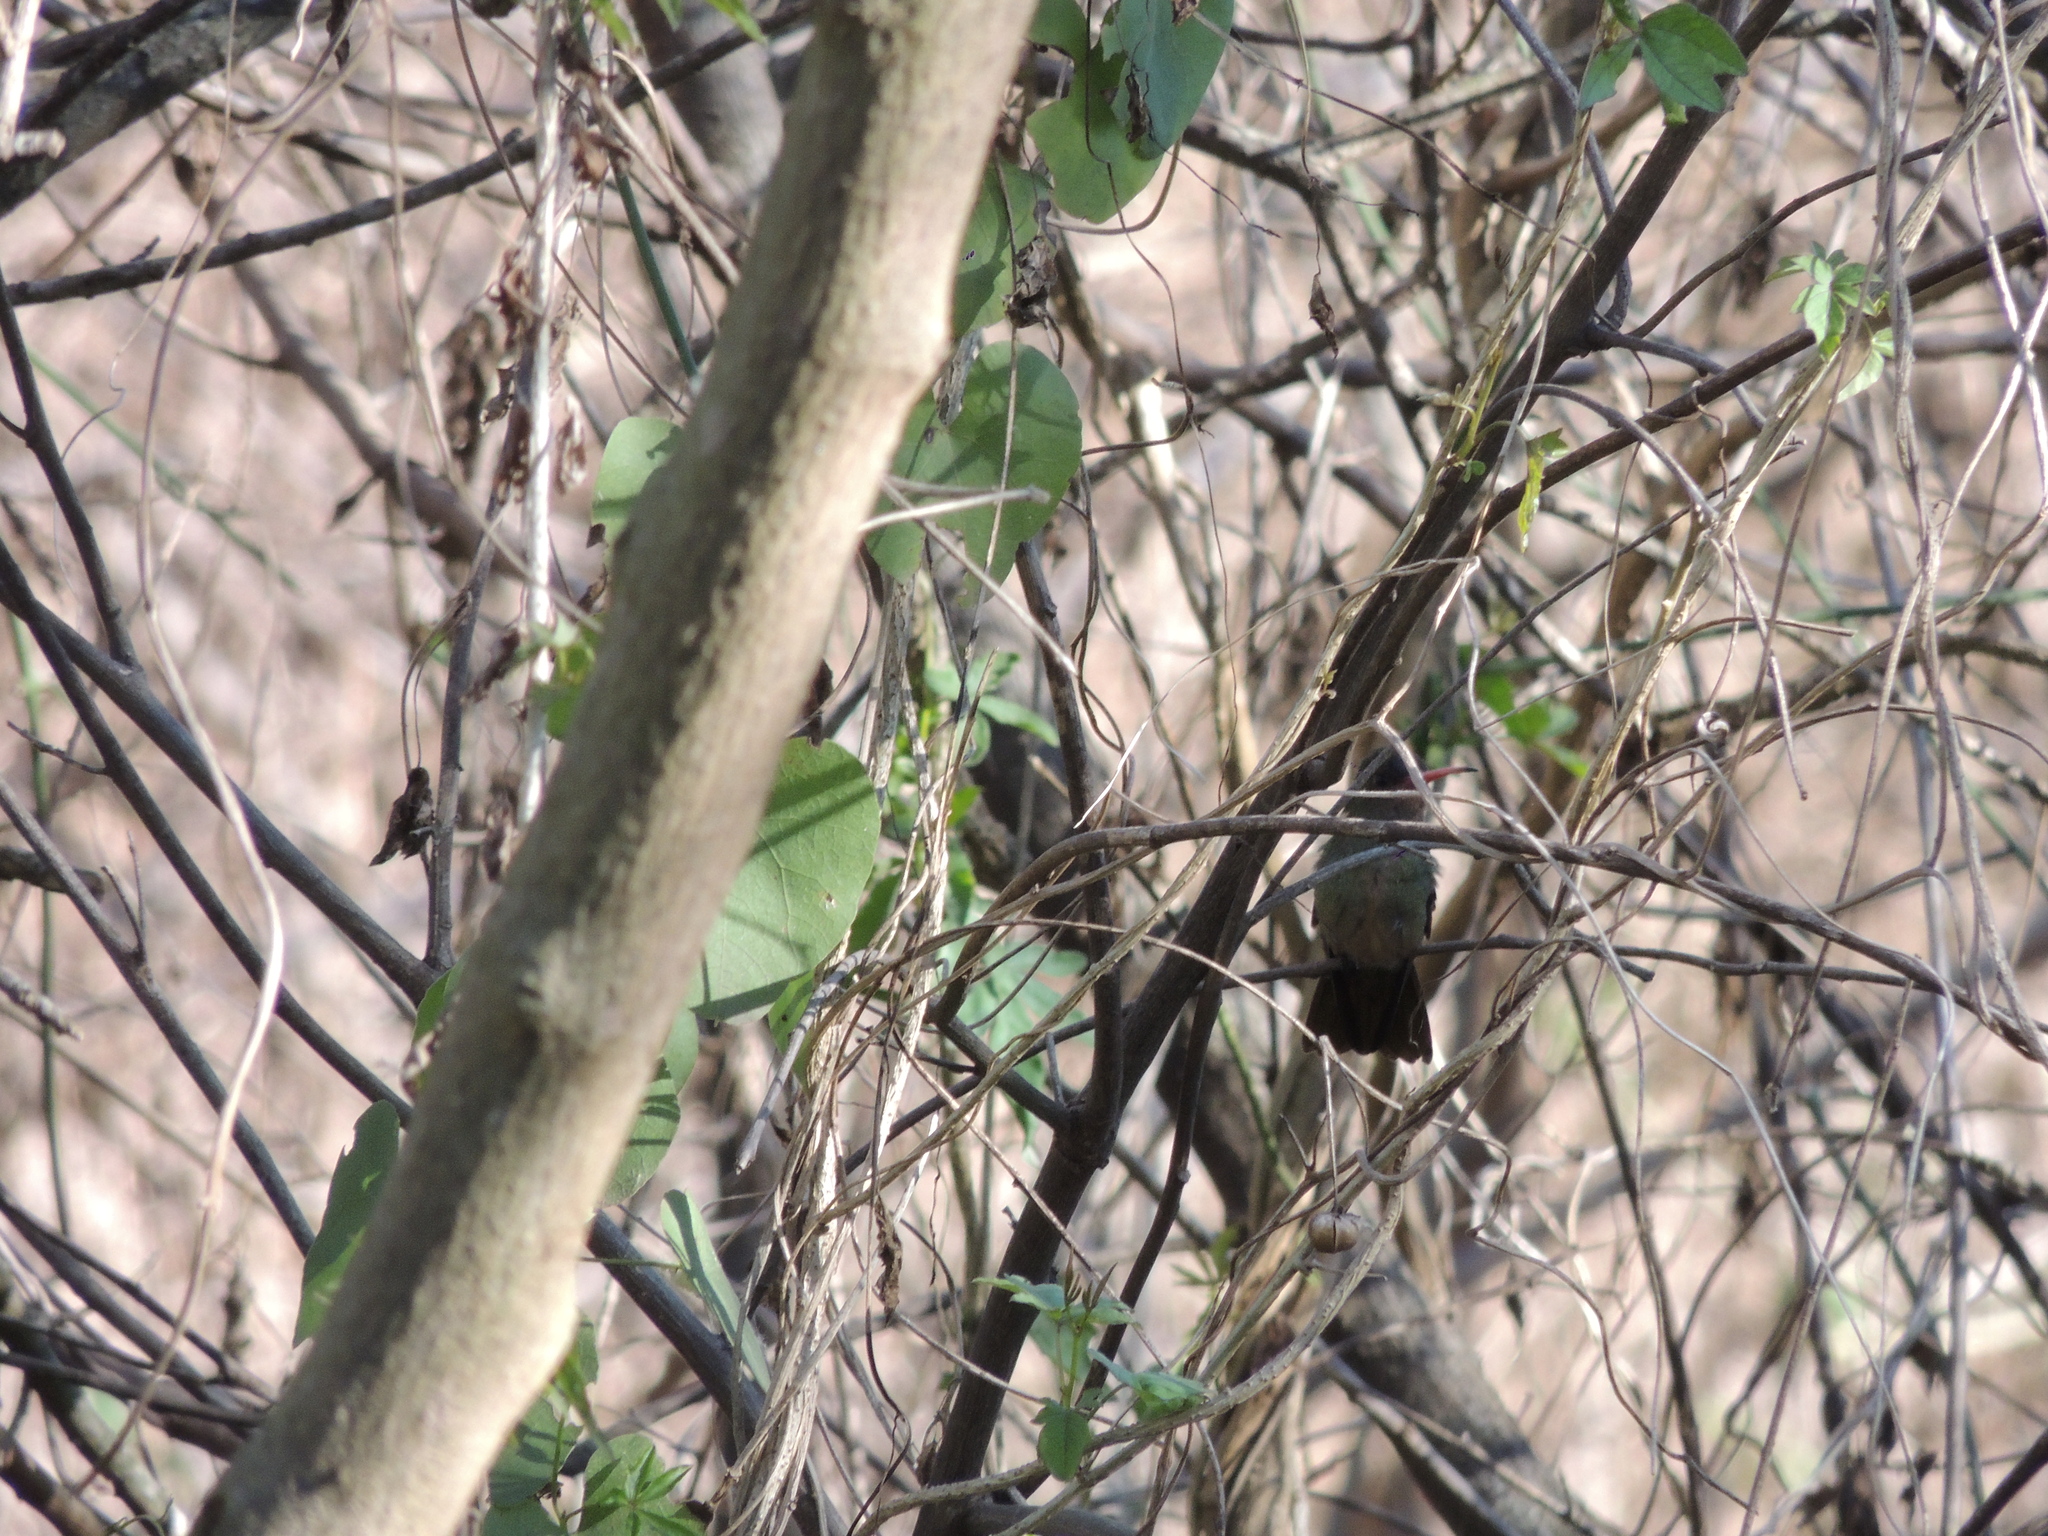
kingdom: Animalia
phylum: Chordata
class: Aves
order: Apodiformes
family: Trochilidae
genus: Hylocharis
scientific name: Hylocharis chrysura
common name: Gilded sapphire
